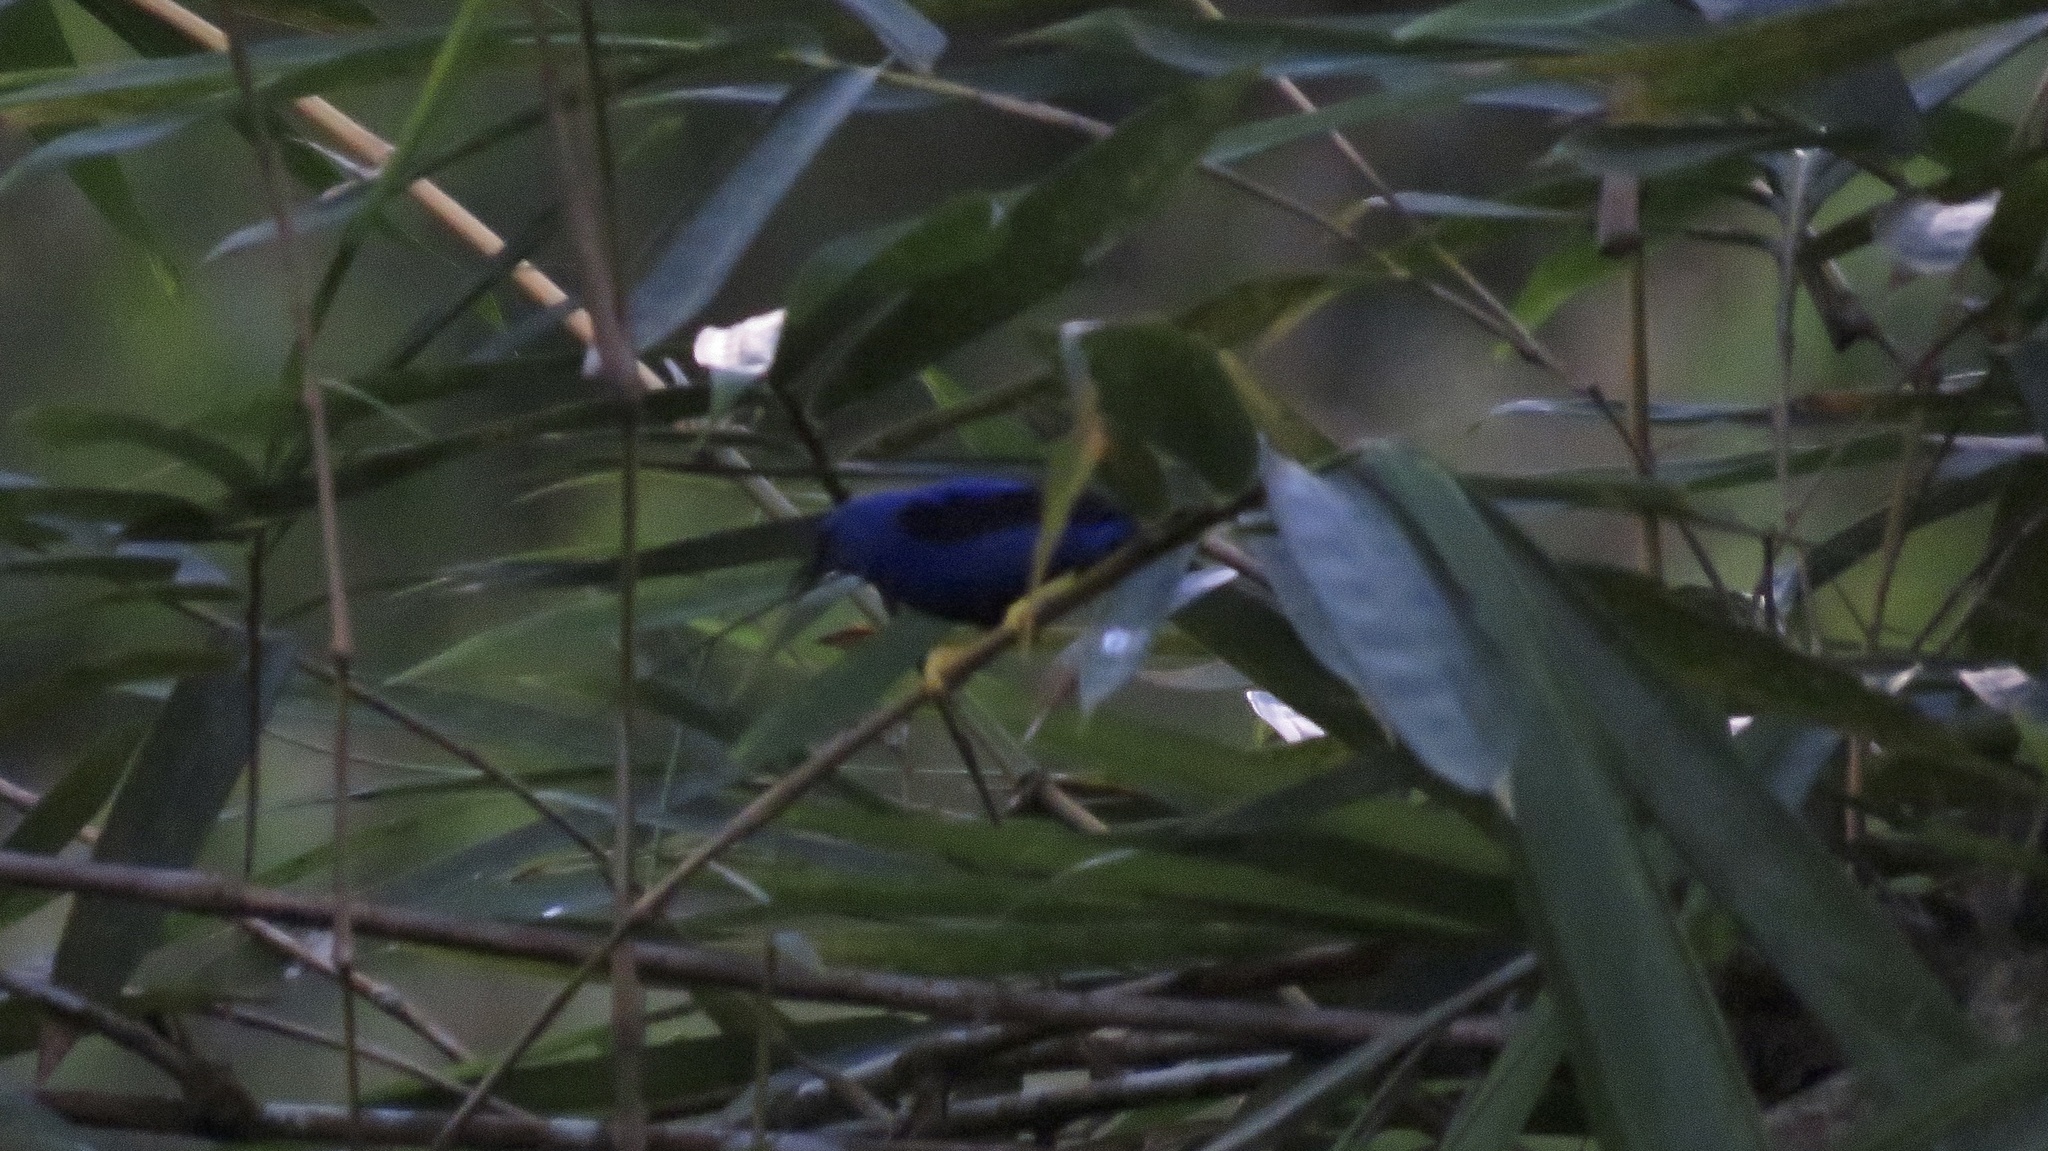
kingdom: Animalia
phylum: Chordata
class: Aves
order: Passeriformes
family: Thraupidae
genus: Cyanerpes
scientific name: Cyanerpes lucidus
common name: Shining honeycreeper
